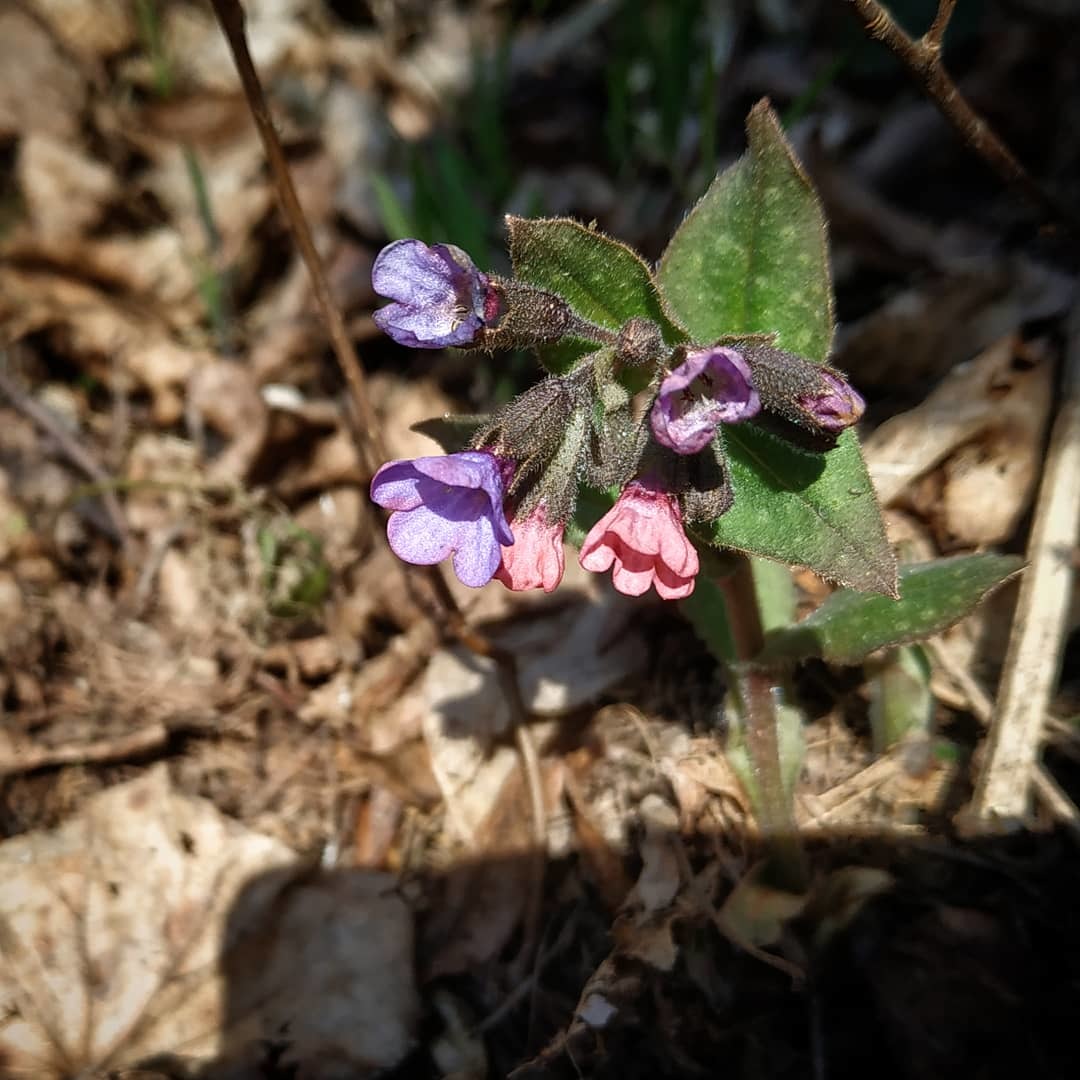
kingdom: Plantae
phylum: Tracheophyta
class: Magnoliopsida
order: Boraginales
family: Boraginaceae
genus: Pulmonaria
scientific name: Pulmonaria obscura
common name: Suffolk lungwort
